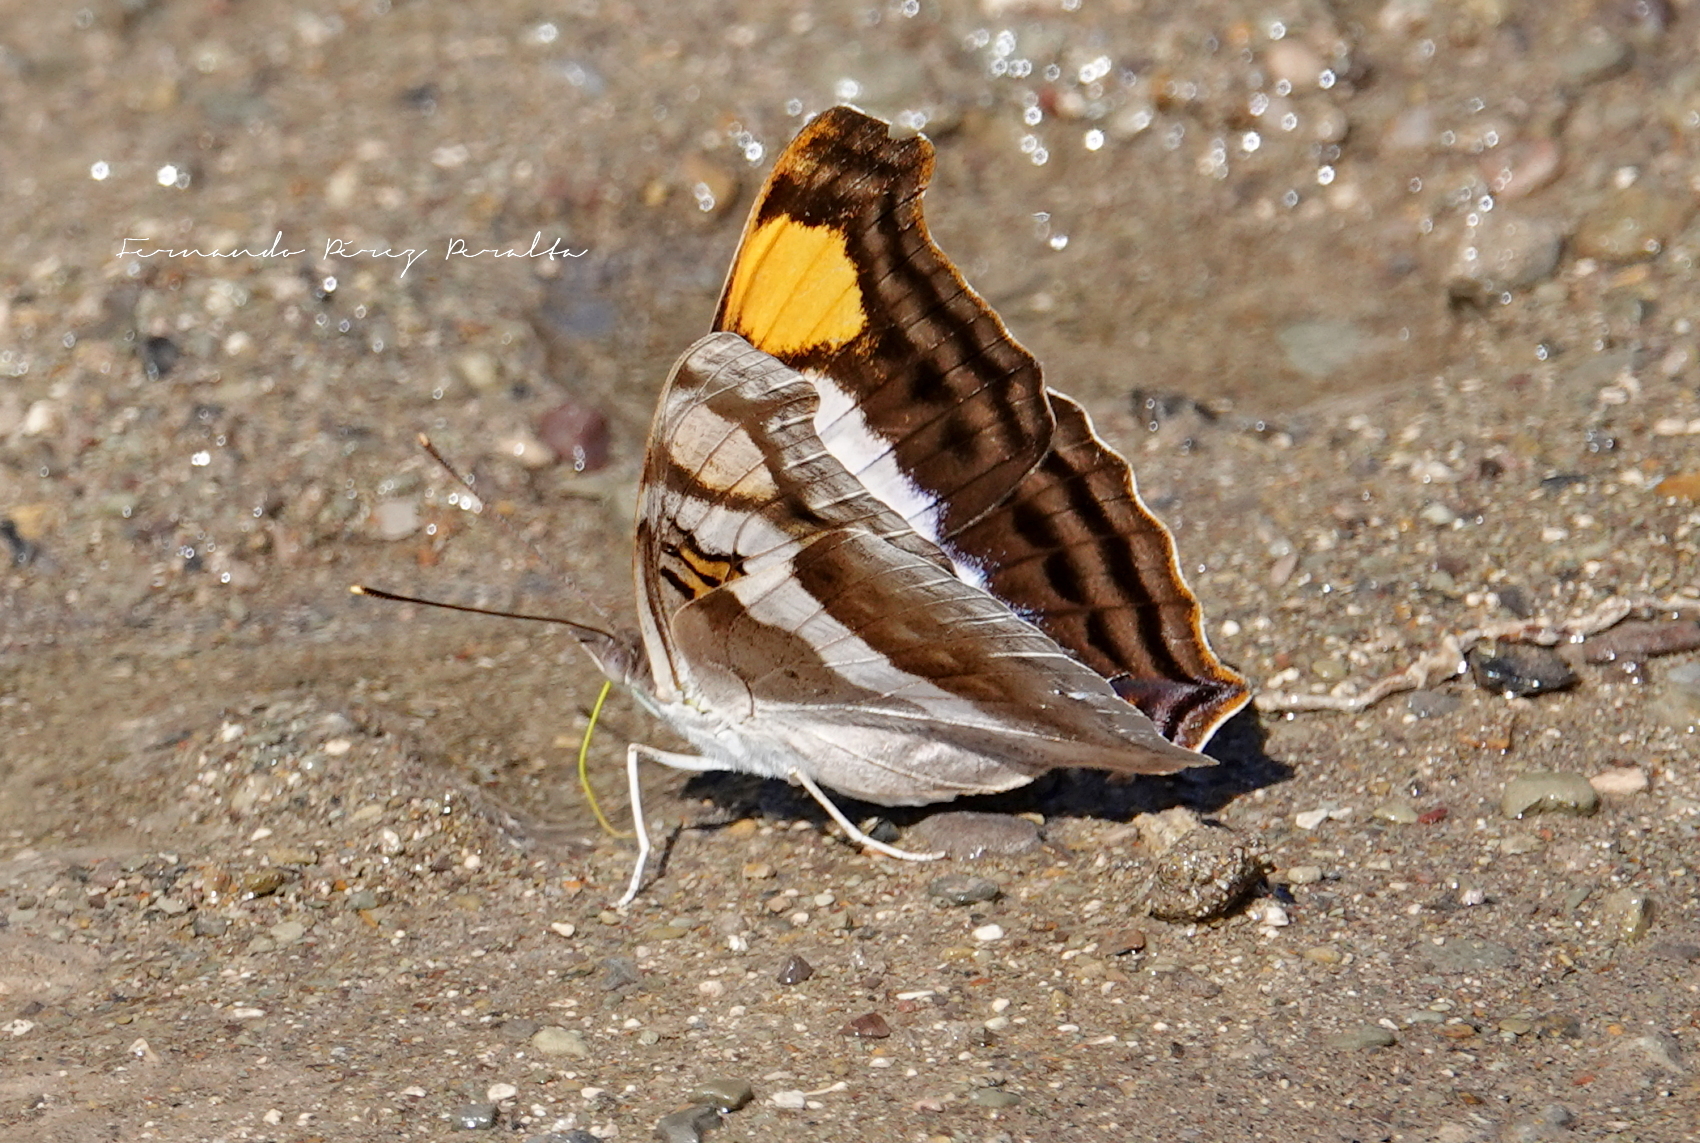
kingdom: Animalia
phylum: Arthropoda
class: Insecta
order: Lepidoptera
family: Nymphalidae
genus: Doxocopa
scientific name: Doxocopa laure
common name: Silver emperor
